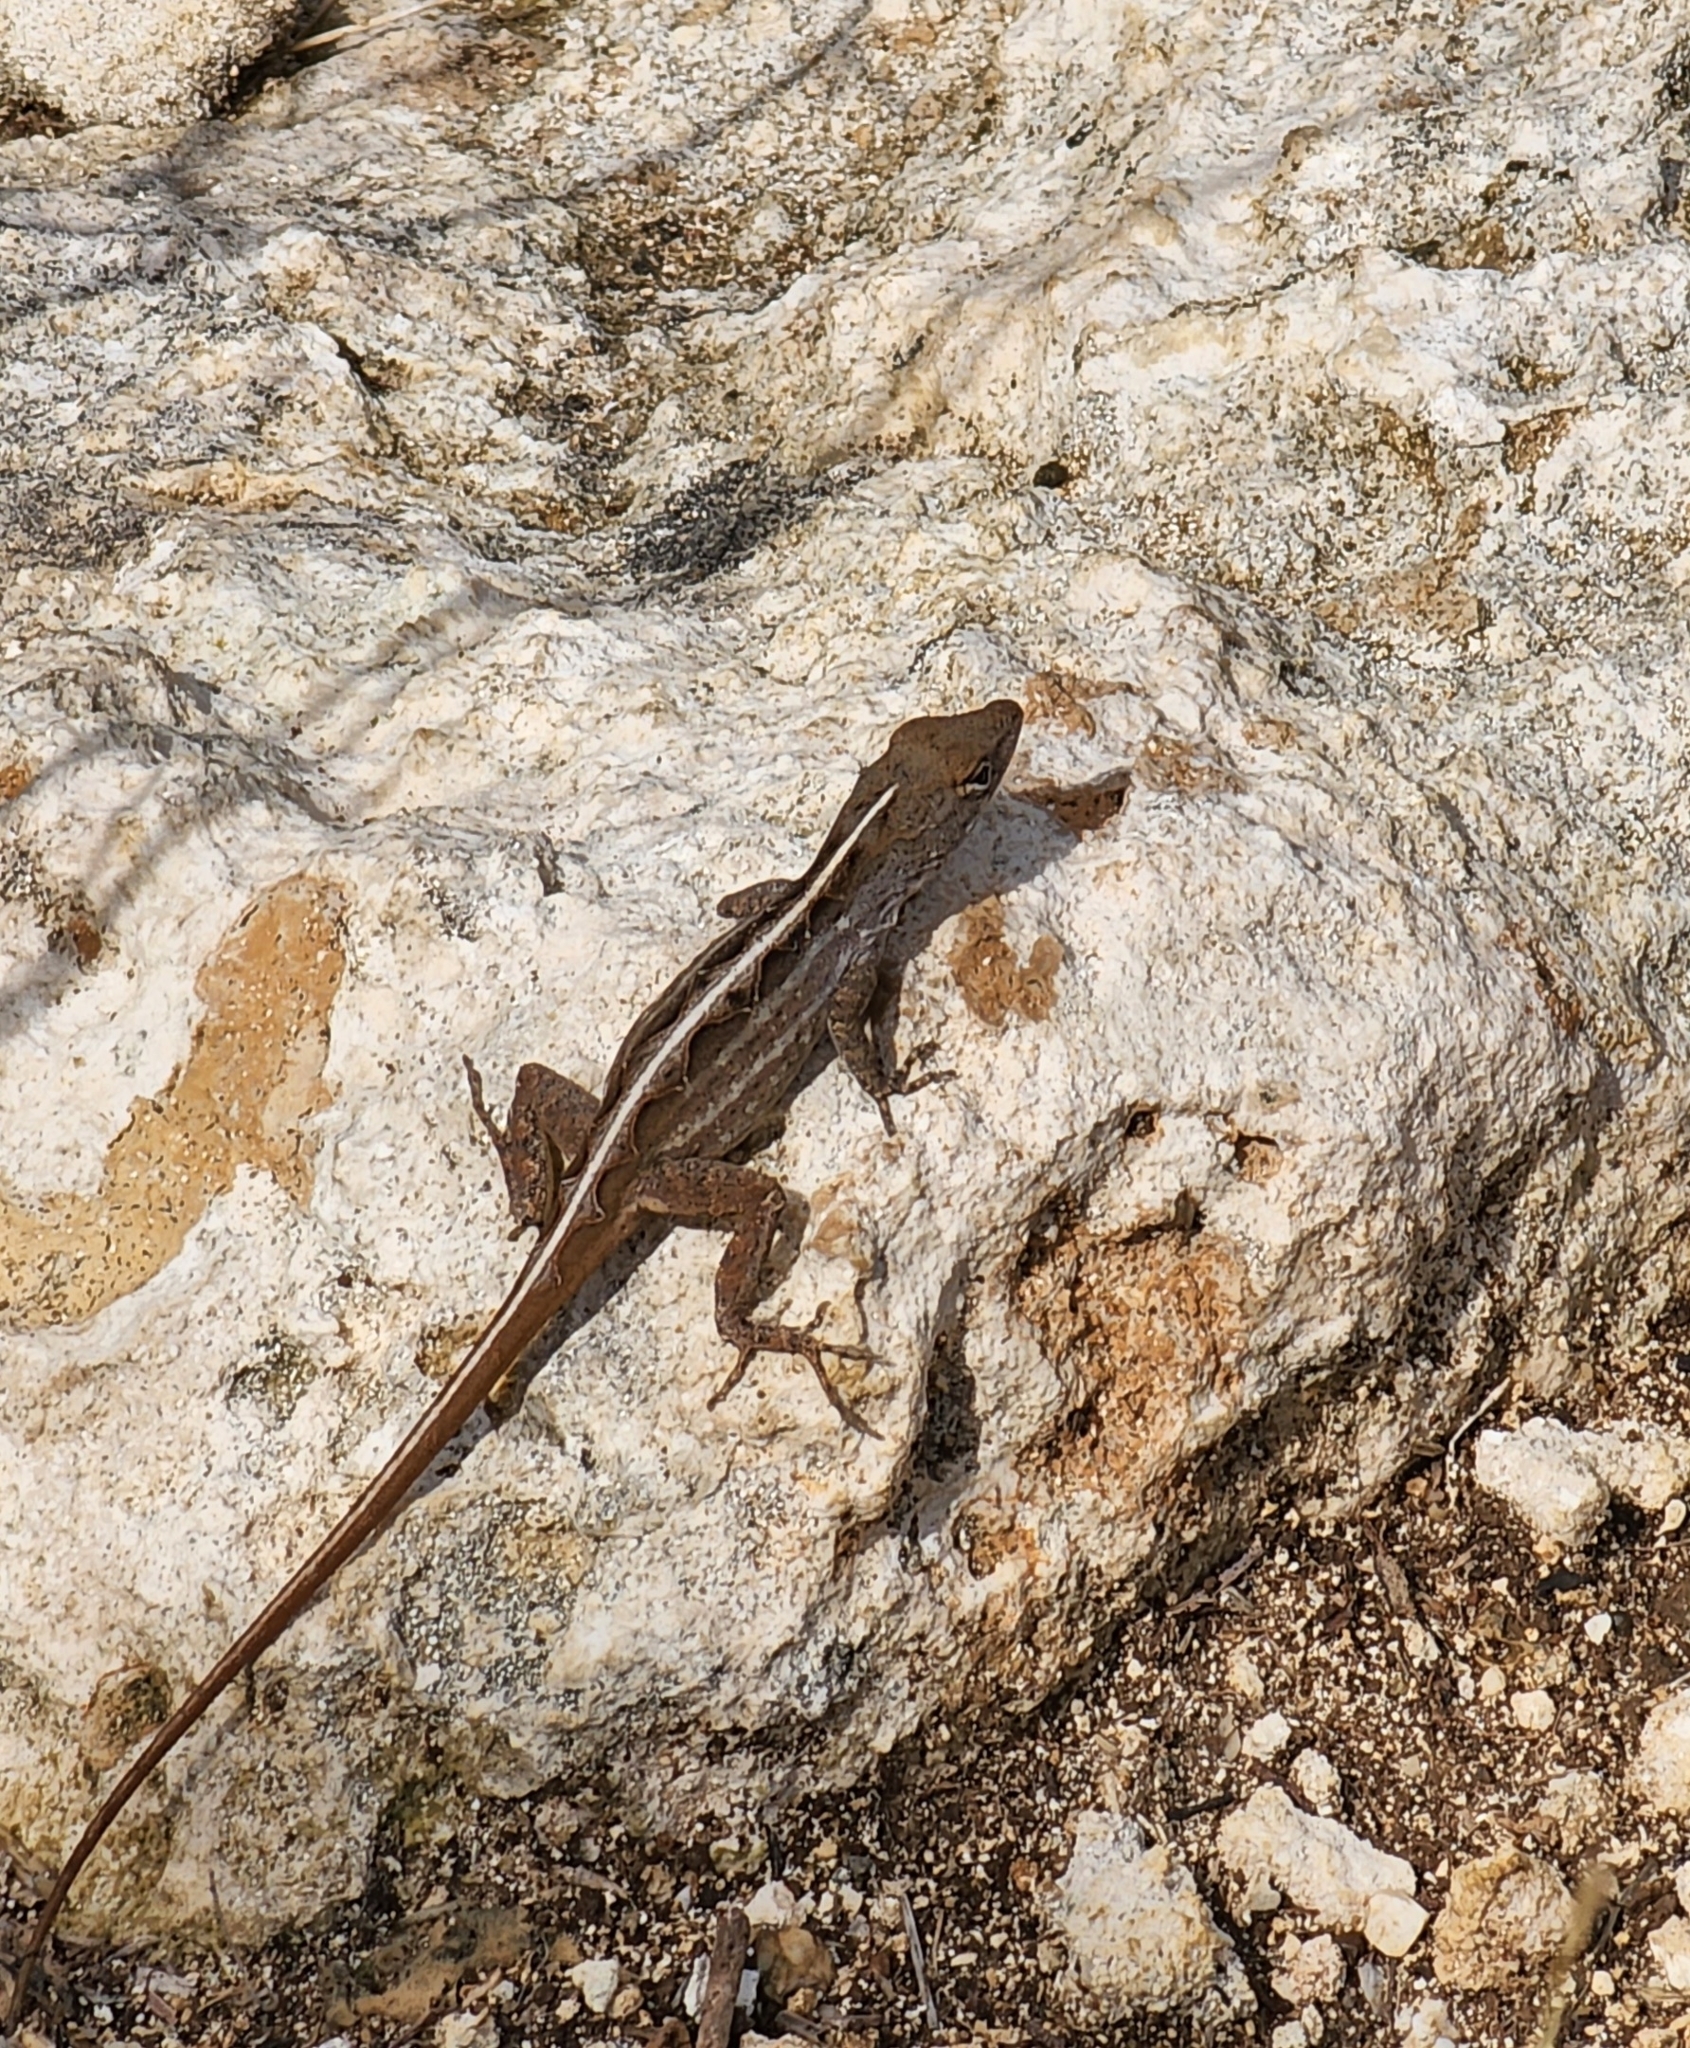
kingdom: Animalia
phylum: Chordata
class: Squamata
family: Dactyloidae
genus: Anolis
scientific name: Anolis sagrei
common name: Brown anole
